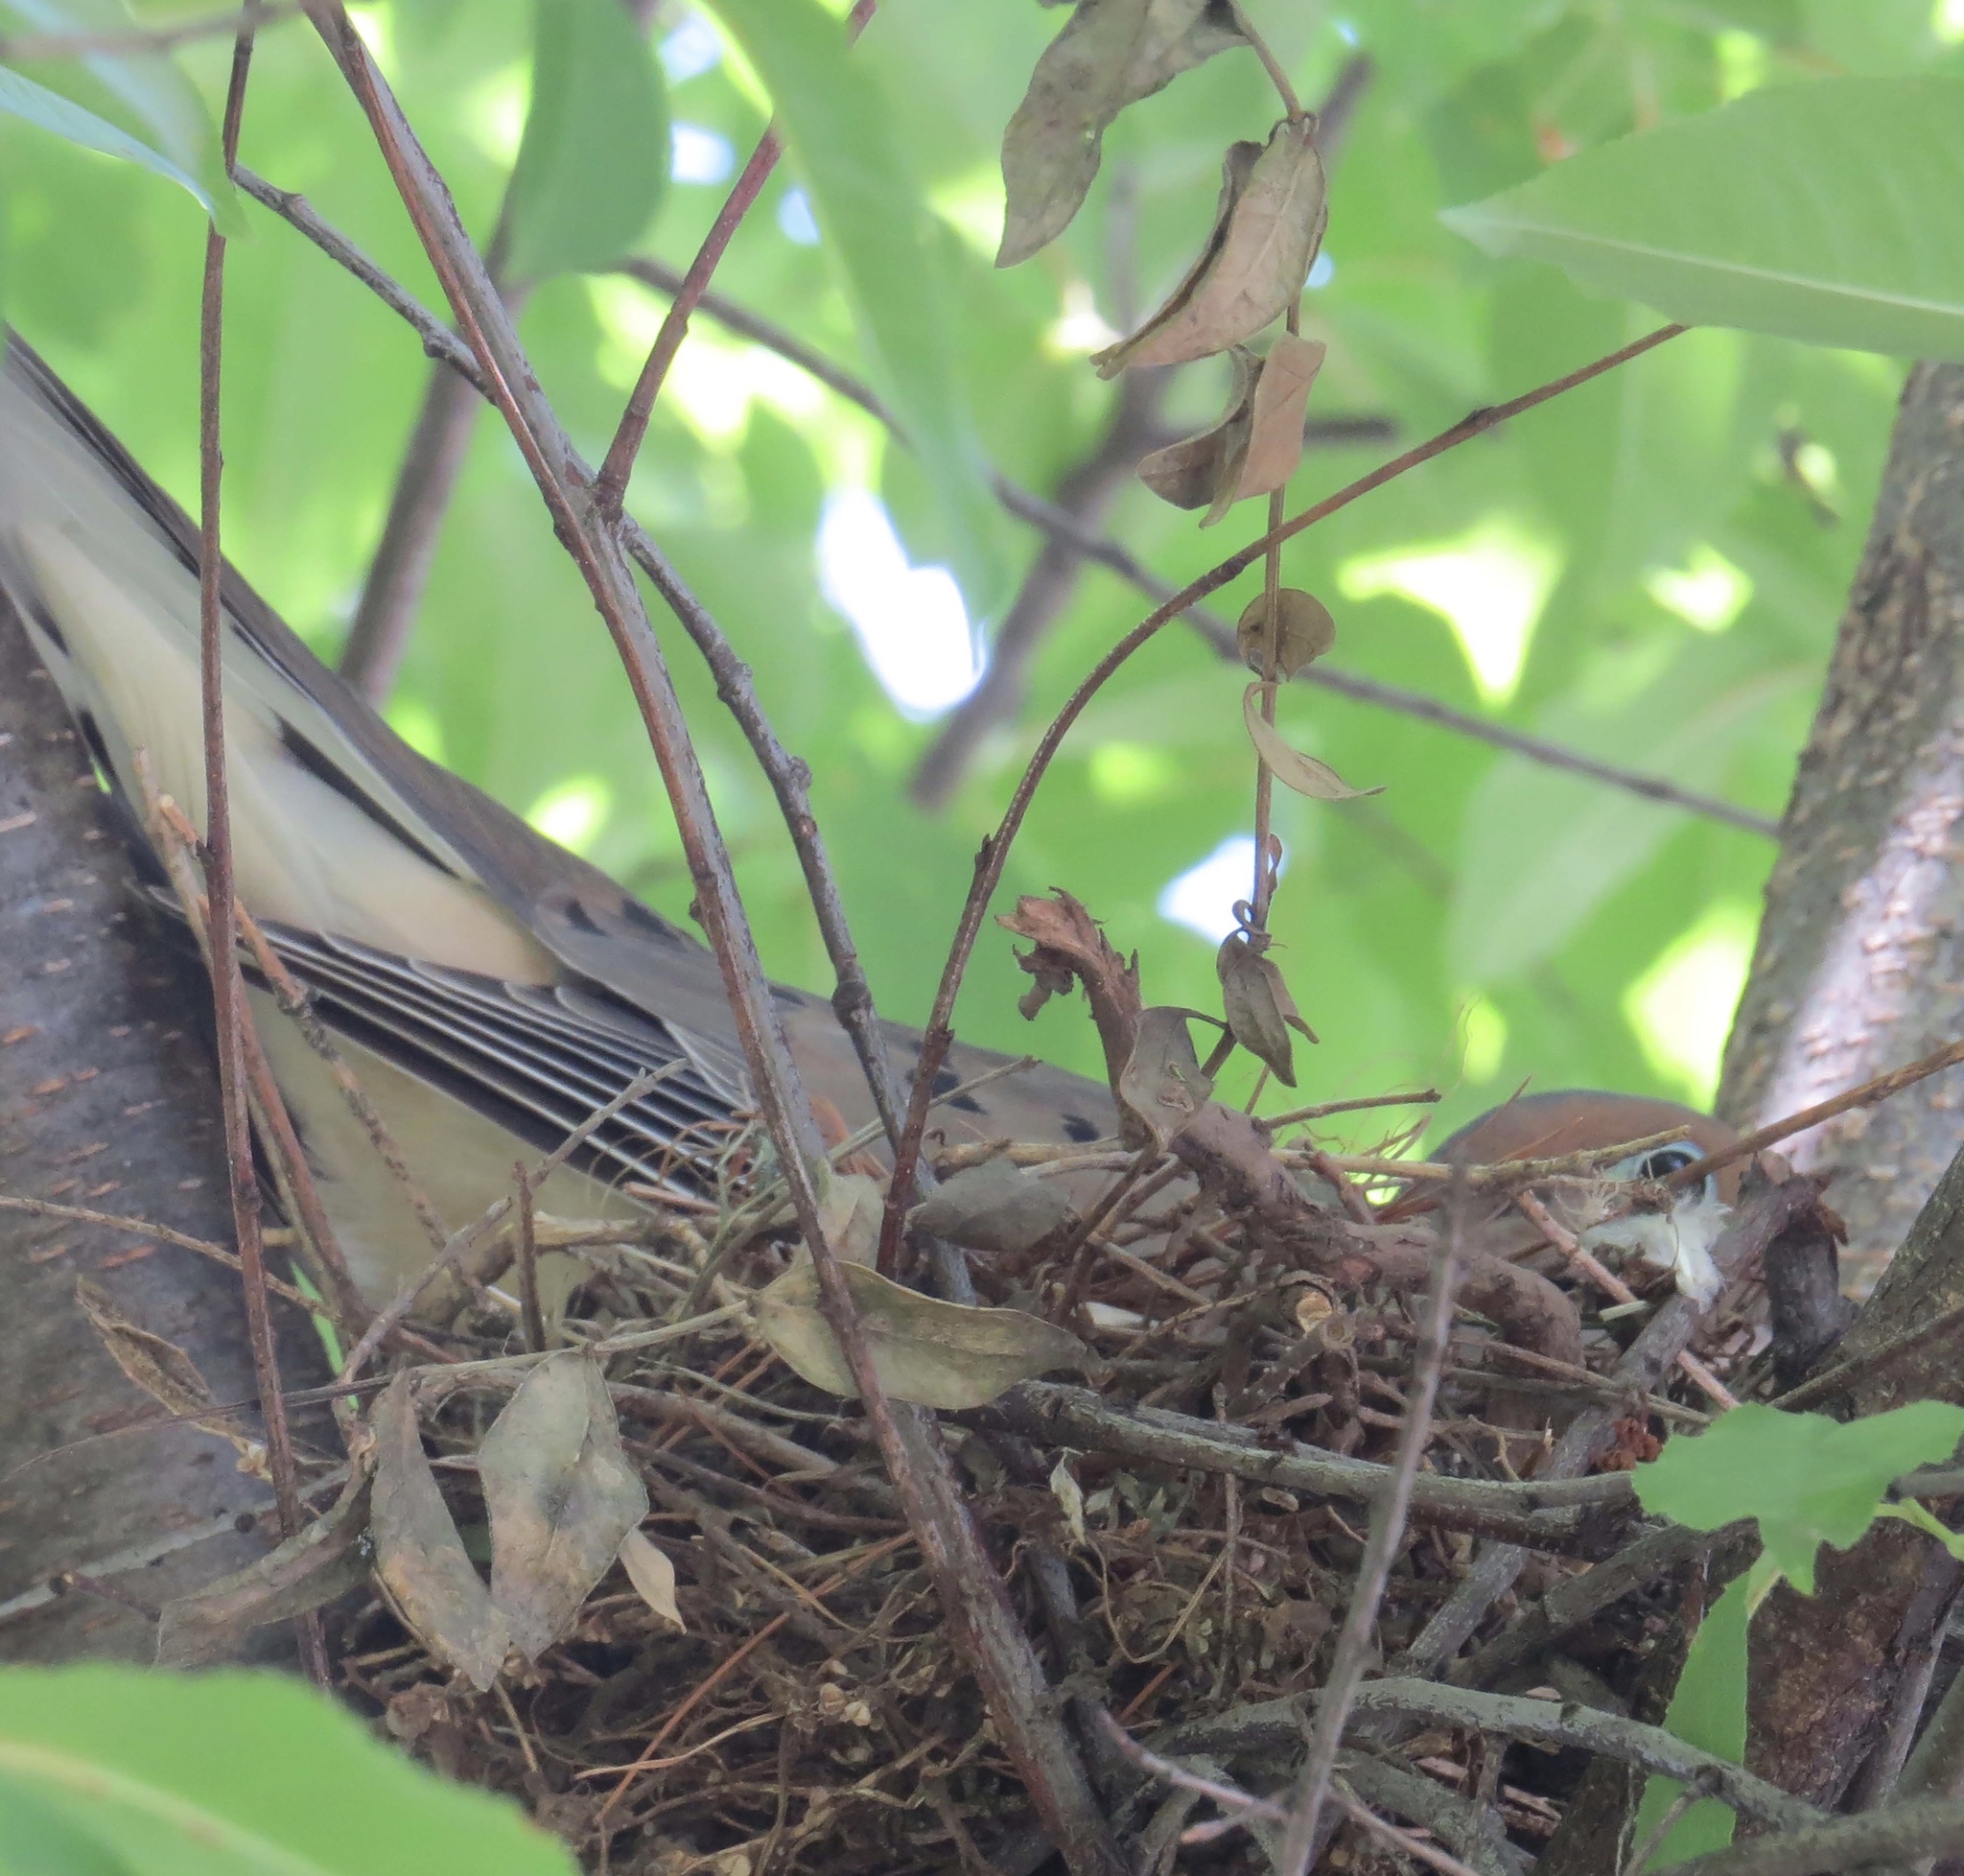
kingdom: Animalia
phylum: Chordata
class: Aves
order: Columbiformes
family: Columbidae
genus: Zenaida
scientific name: Zenaida macroura
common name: Mourning dove
